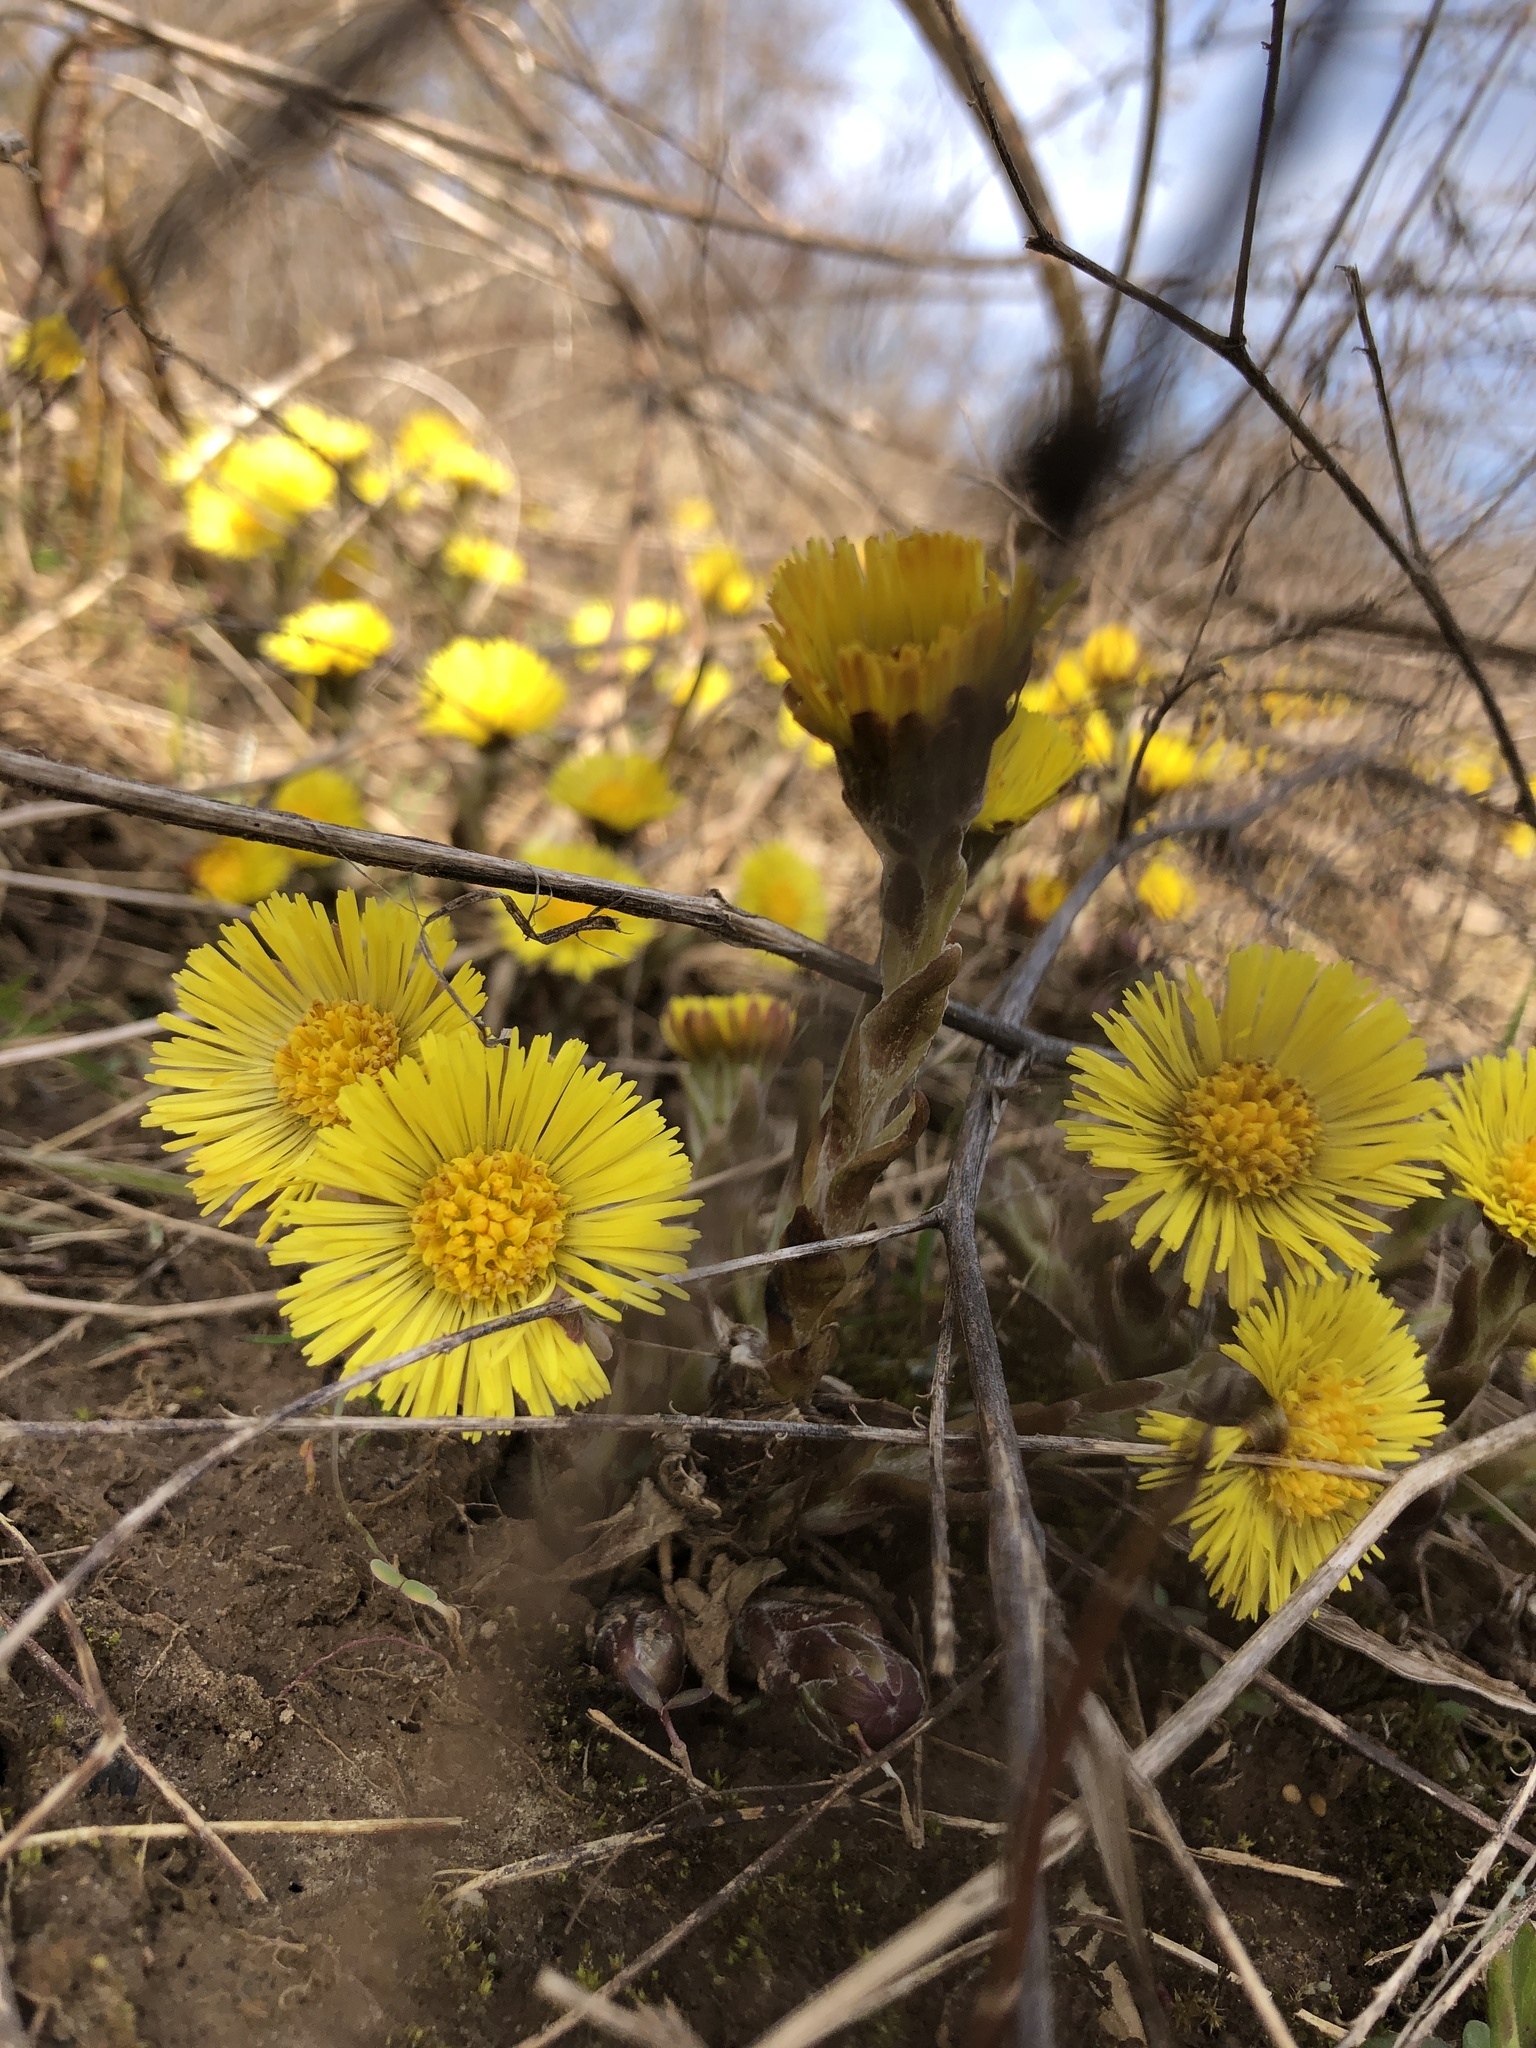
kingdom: Plantae
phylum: Tracheophyta
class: Magnoliopsida
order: Asterales
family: Asteraceae
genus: Tussilago
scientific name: Tussilago farfara
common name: Coltsfoot
